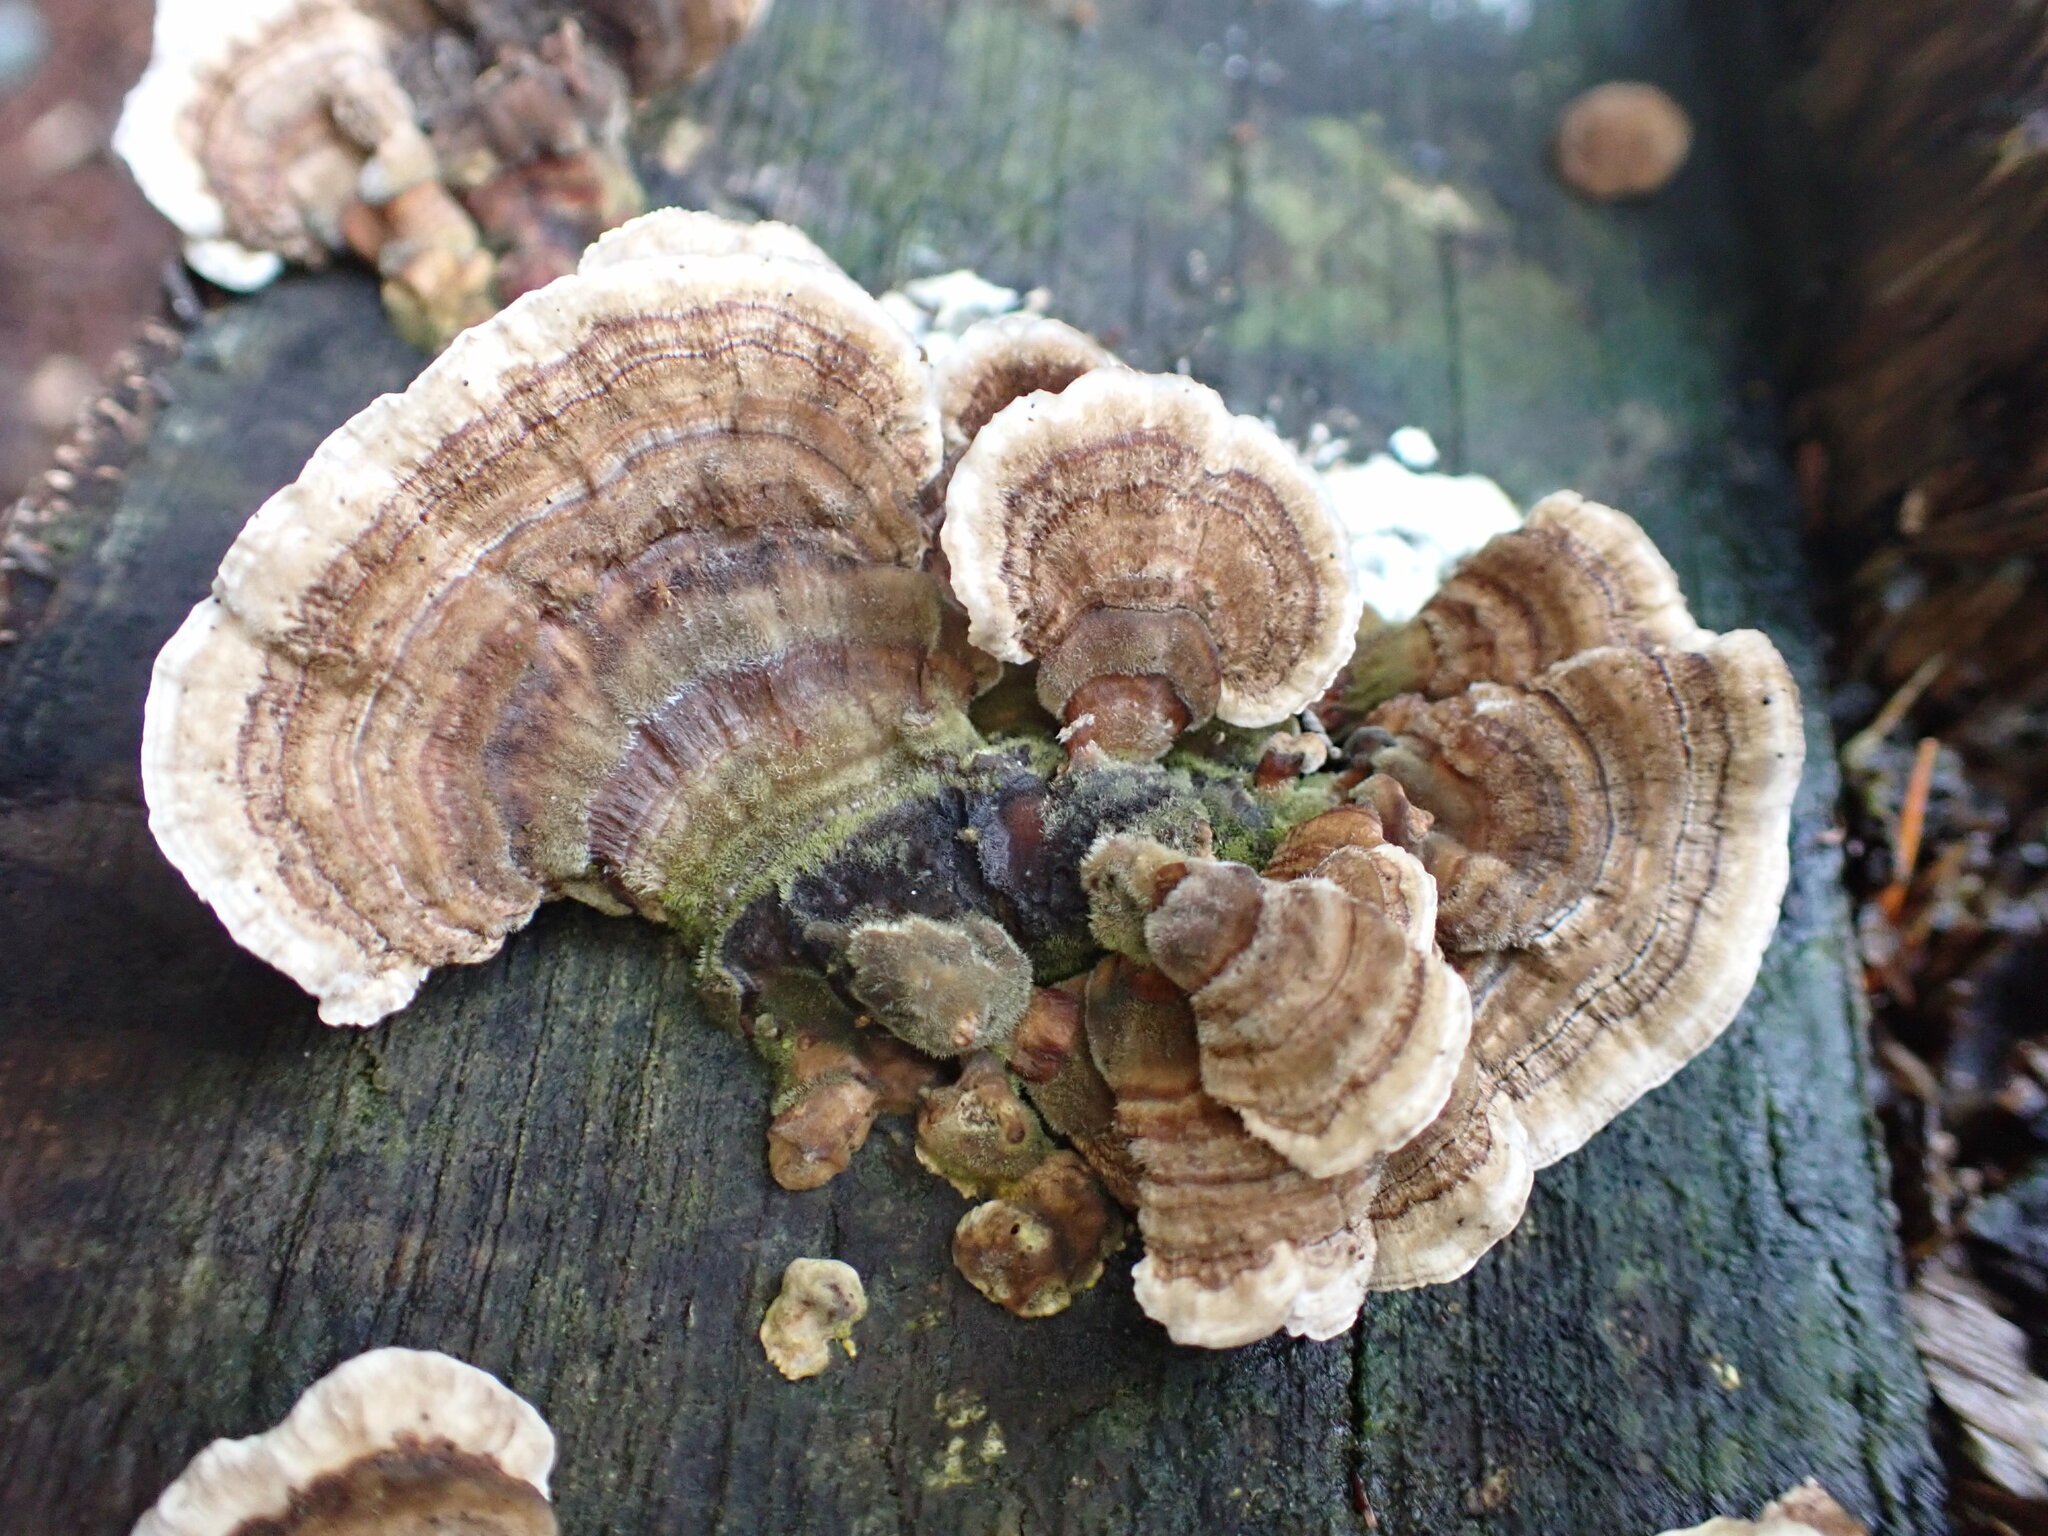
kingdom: Fungi
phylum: Basidiomycota
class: Agaricomycetes
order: Polyporales
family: Polyporaceae
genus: Trametes
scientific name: Trametes versicolor
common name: Turkeytail
